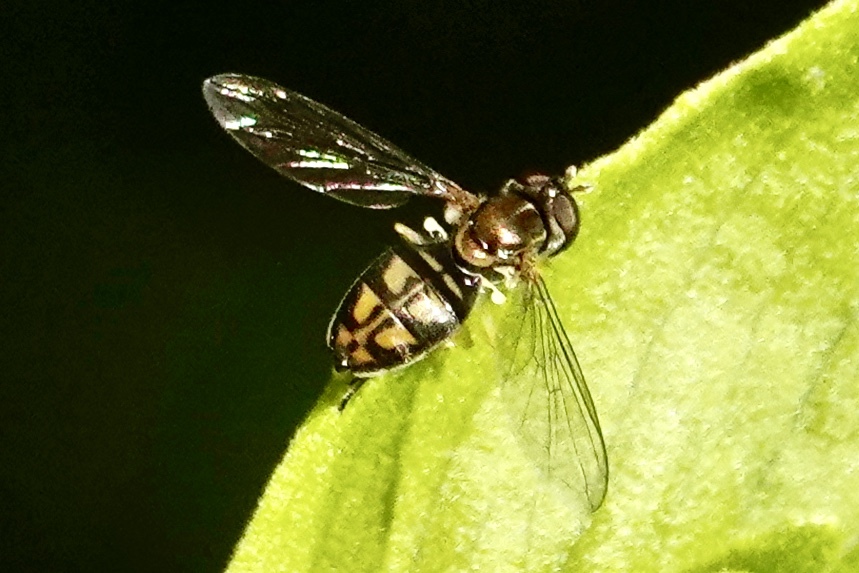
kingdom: Animalia
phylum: Arthropoda
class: Insecta
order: Diptera
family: Syrphidae
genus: Toxomerus
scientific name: Toxomerus marginatus
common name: Syrphid fly
